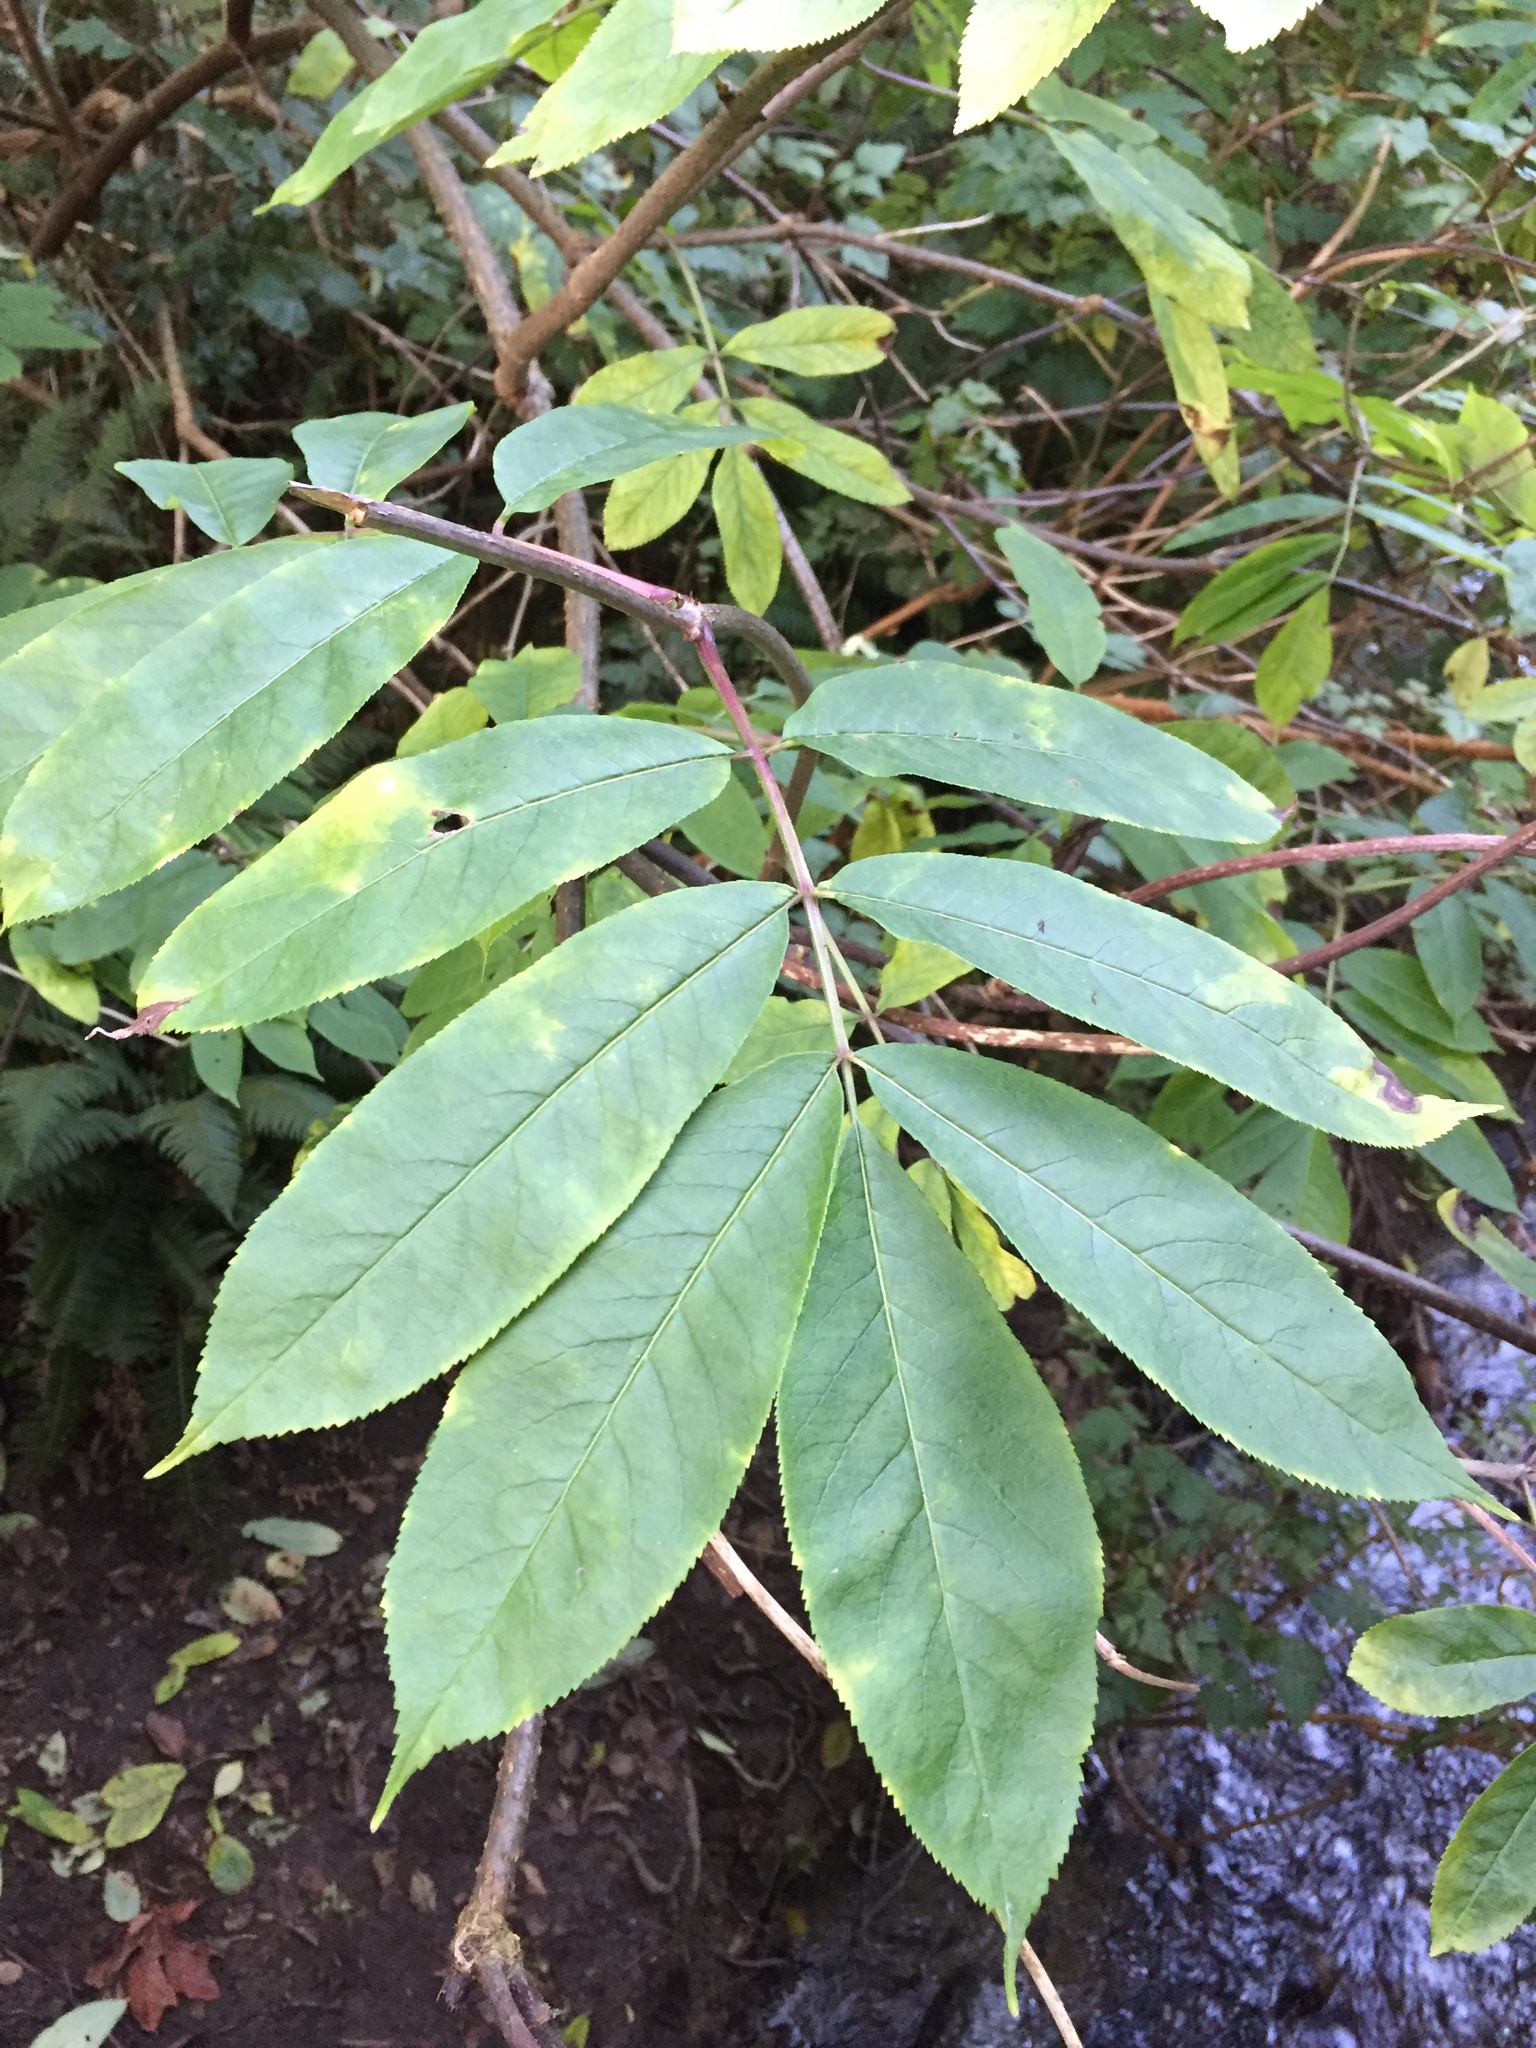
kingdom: Plantae
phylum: Tracheophyta
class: Magnoliopsida
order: Dipsacales
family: Viburnaceae
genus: Sambucus
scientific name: Sambucus racemosa
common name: Red-berried elder
